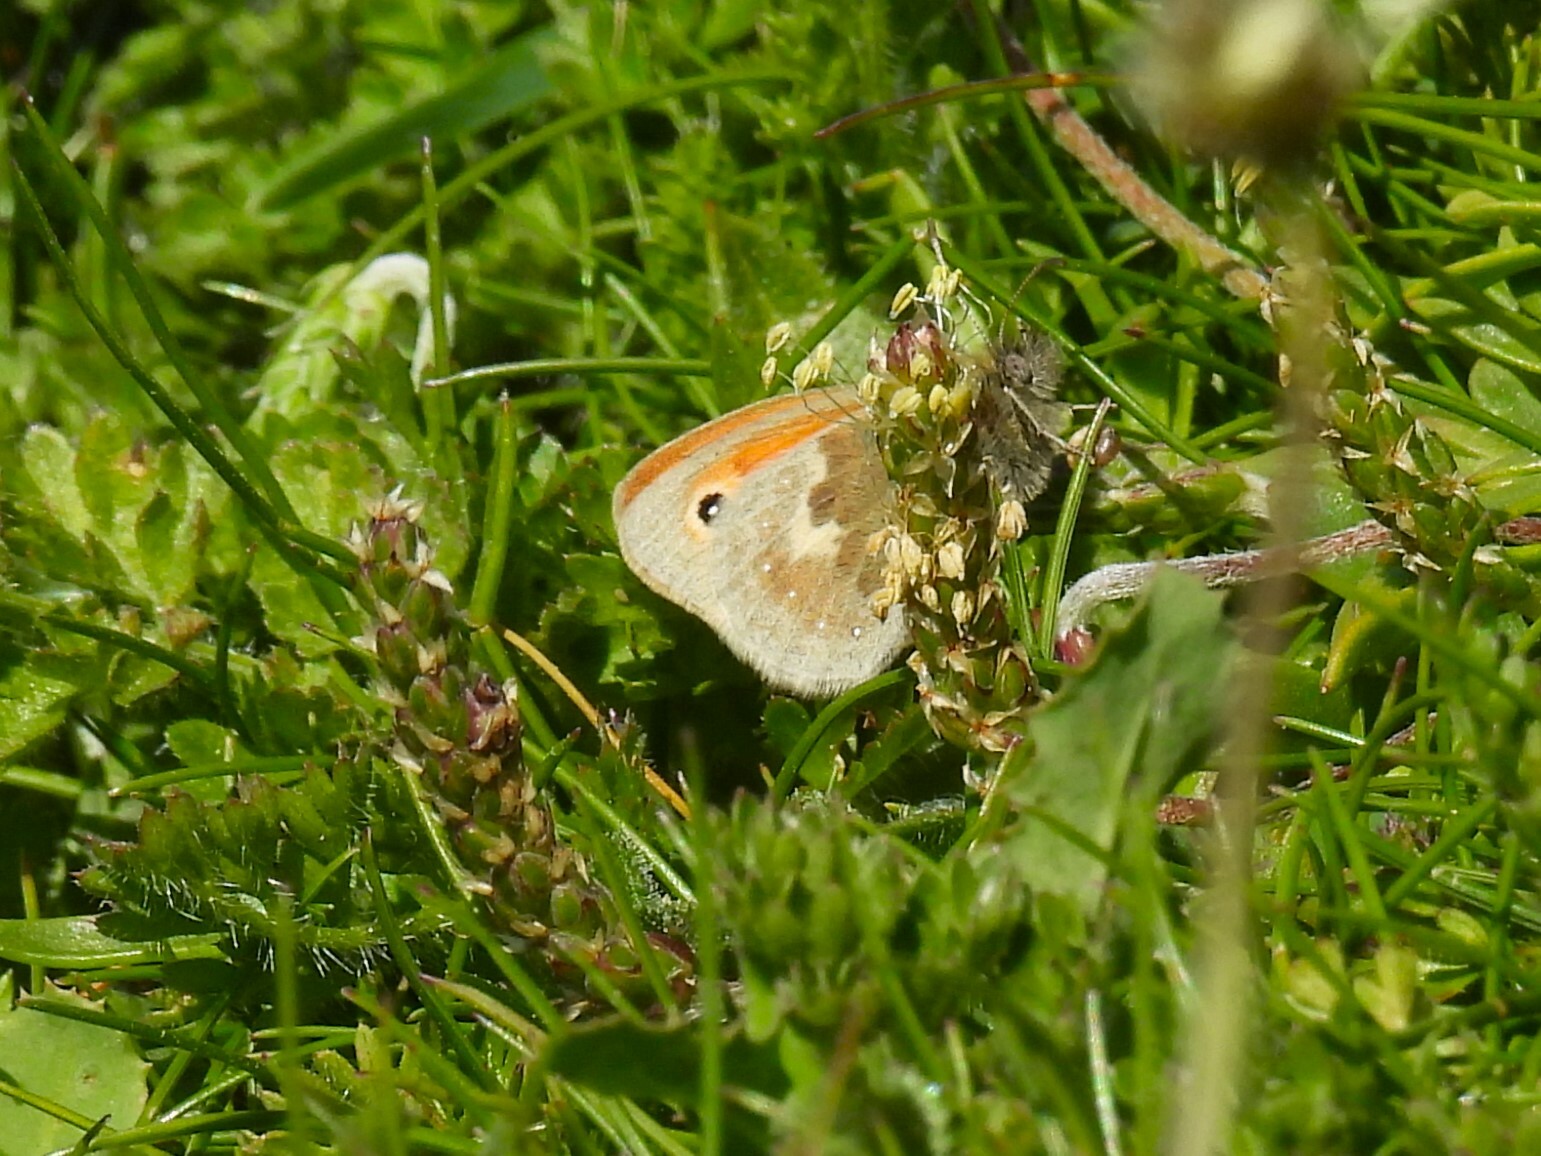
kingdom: Animalia
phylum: Arthropoda
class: Insecta
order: Lepidoptera
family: Nymphalidae
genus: Coenonympha
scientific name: Coenonympha pamphilus
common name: Small heath
